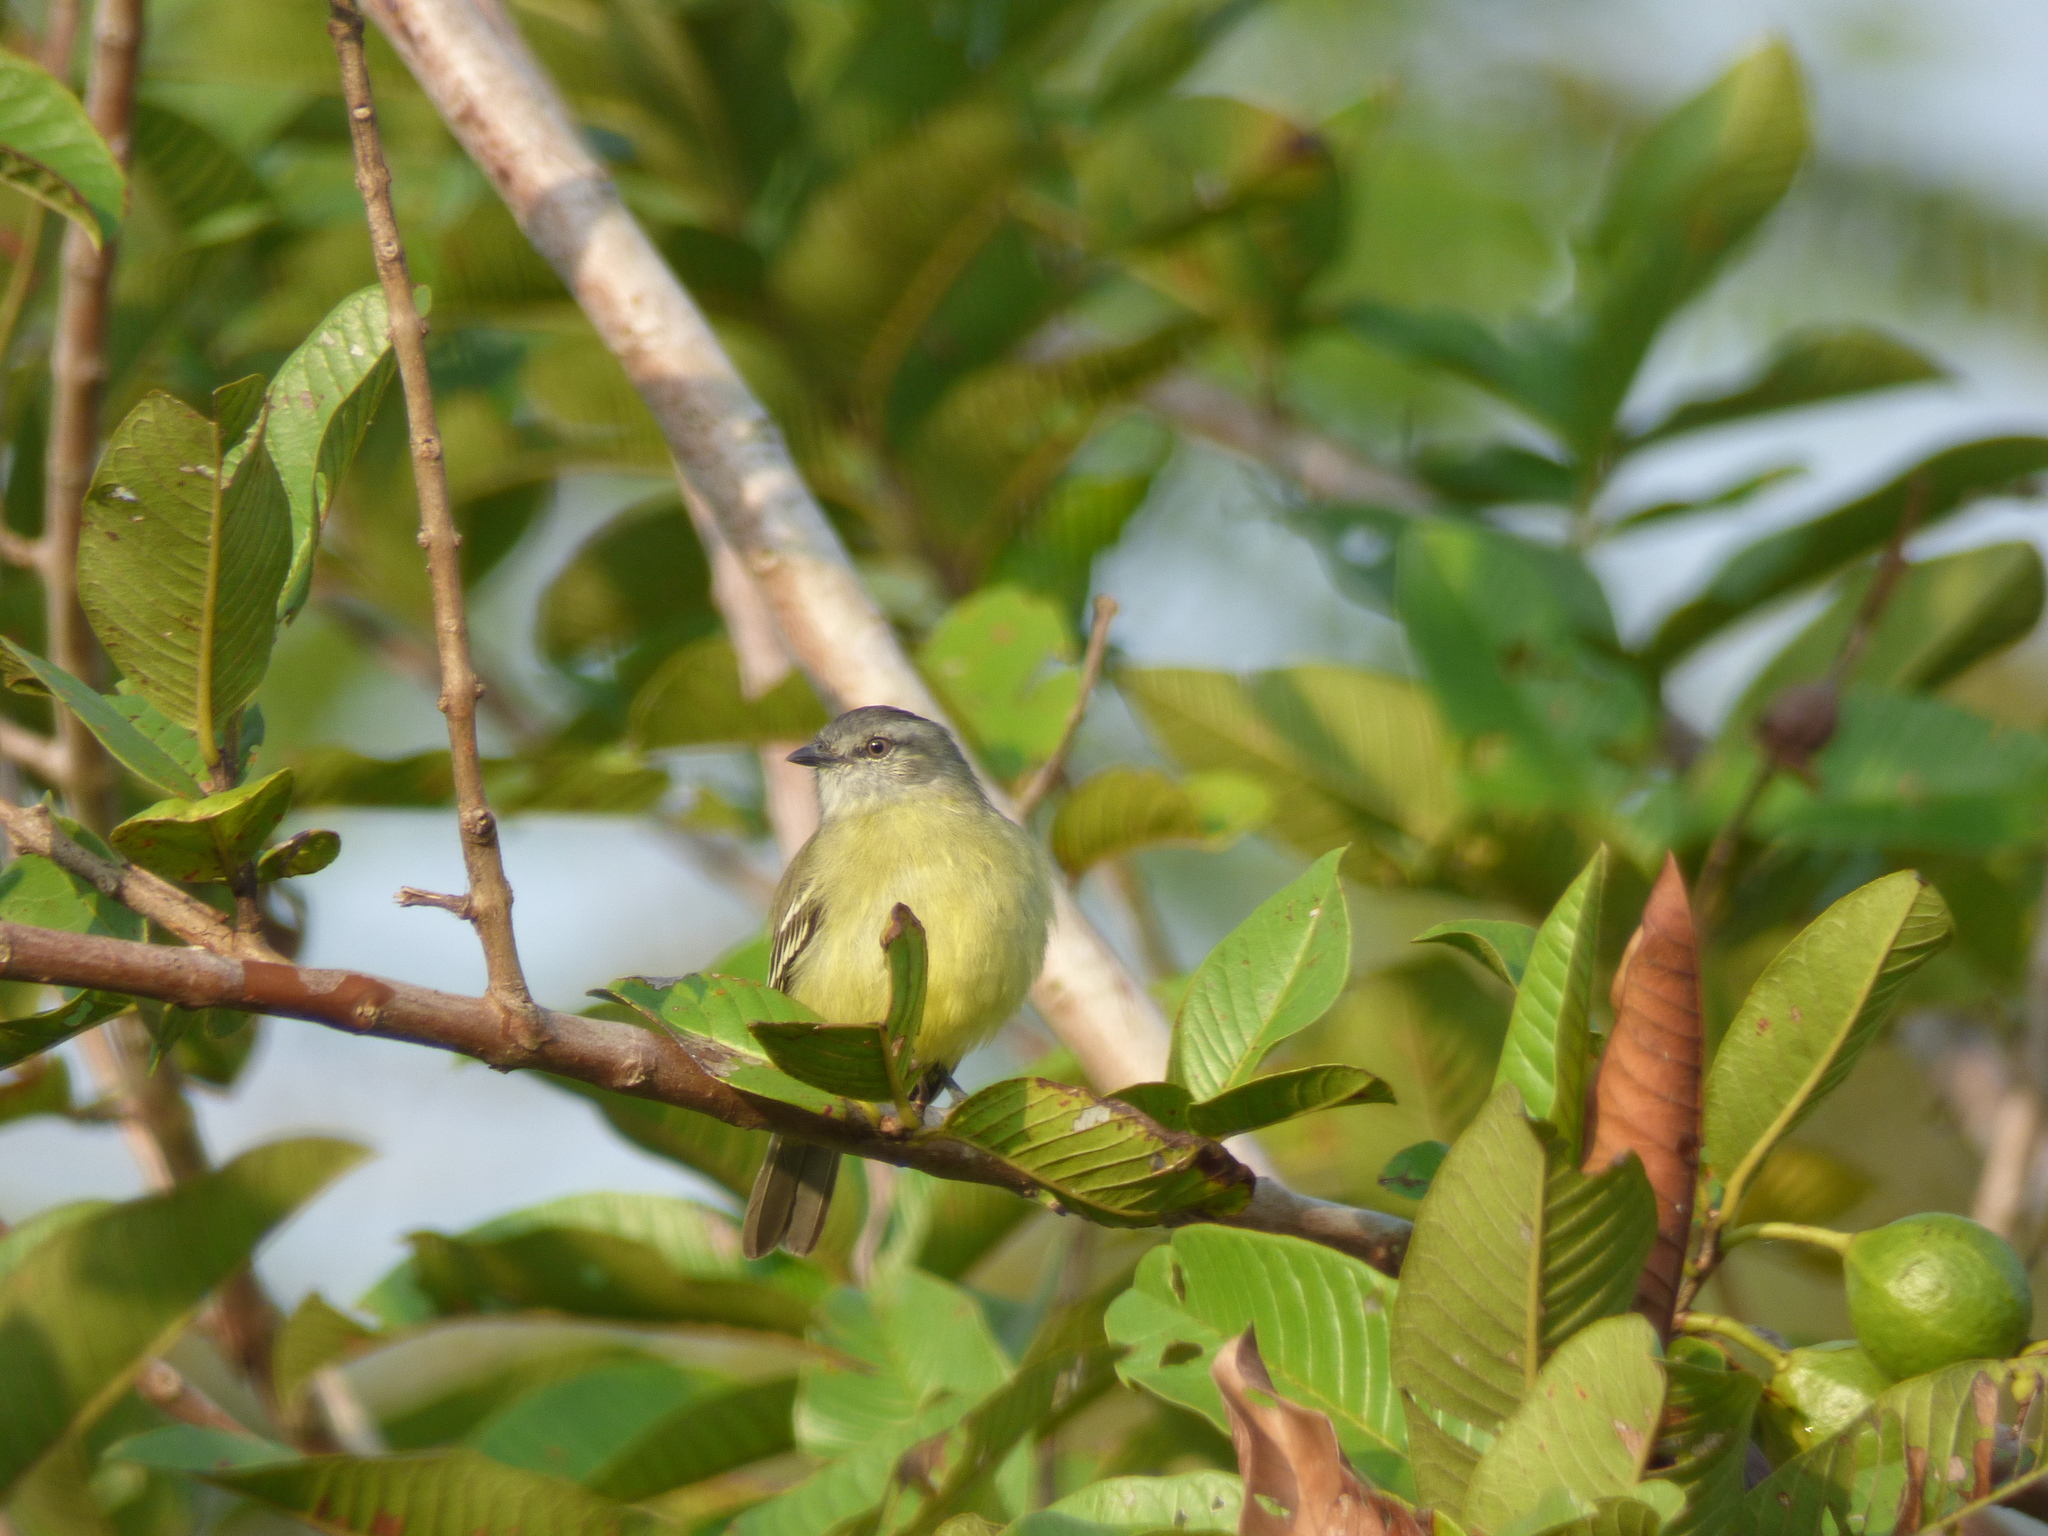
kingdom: Animalia
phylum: Chordata
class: Aves
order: Passeriformes
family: Tyrannidae
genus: Tyrannulus
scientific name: Tyrannulus elatus
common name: Yellow-crowned tyrannulet
